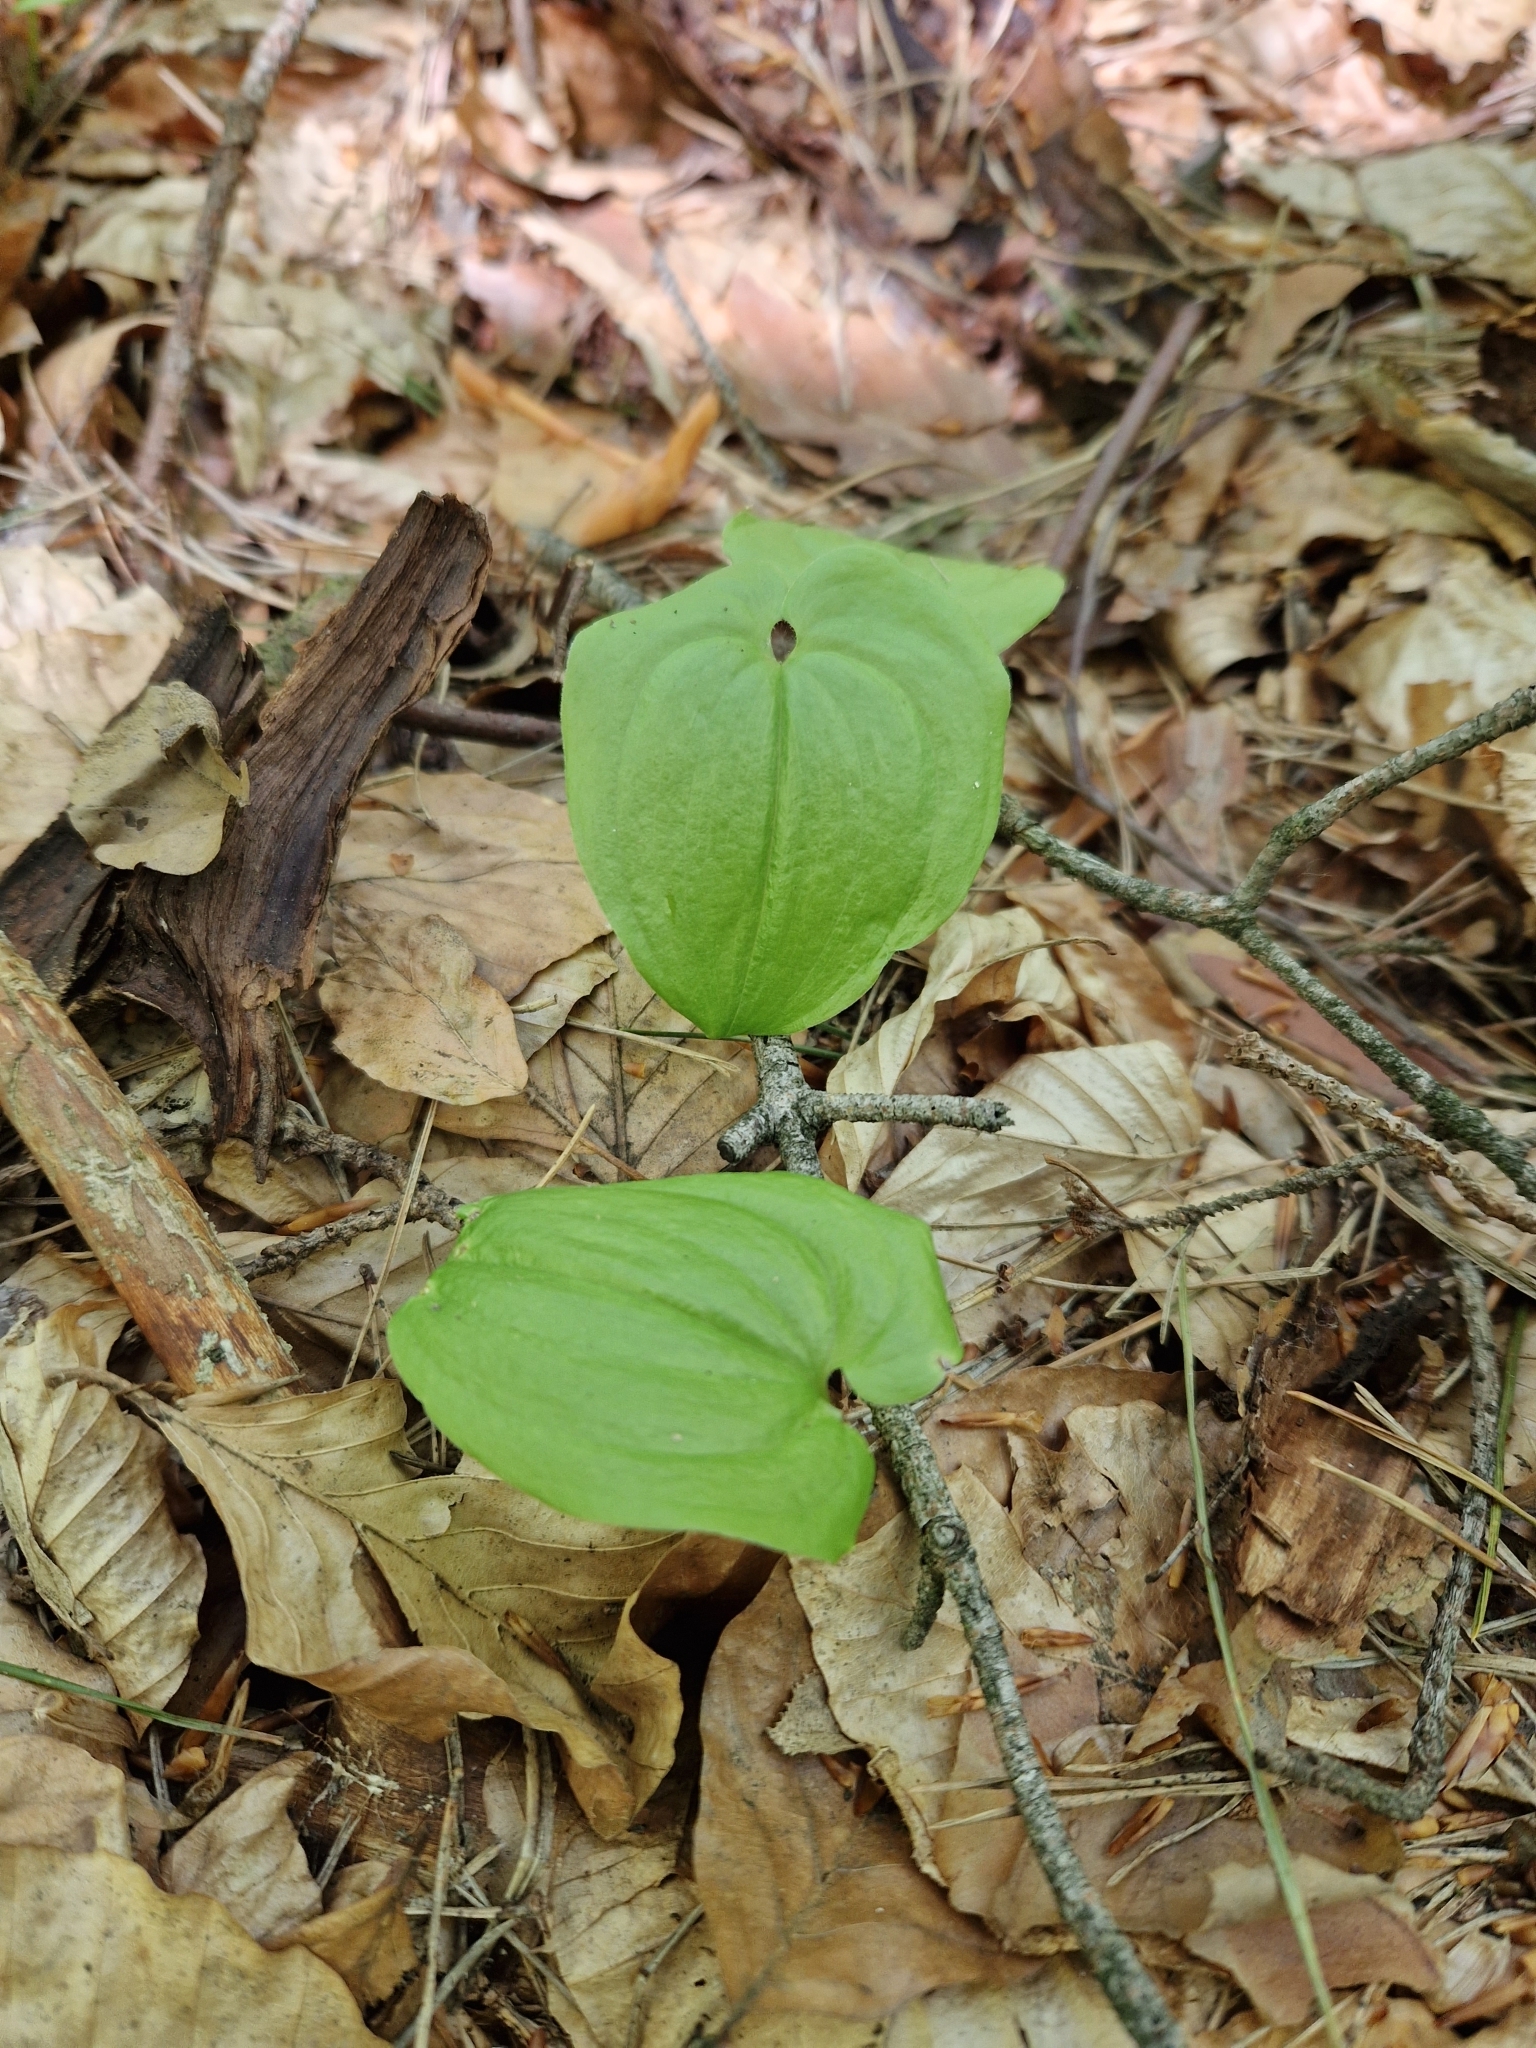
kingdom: Plantae
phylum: Tracheophyta
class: Liliopsida
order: Asparagales
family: Asparagaceae
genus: Maianthemum
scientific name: Maianthemum bifolium
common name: May lily
